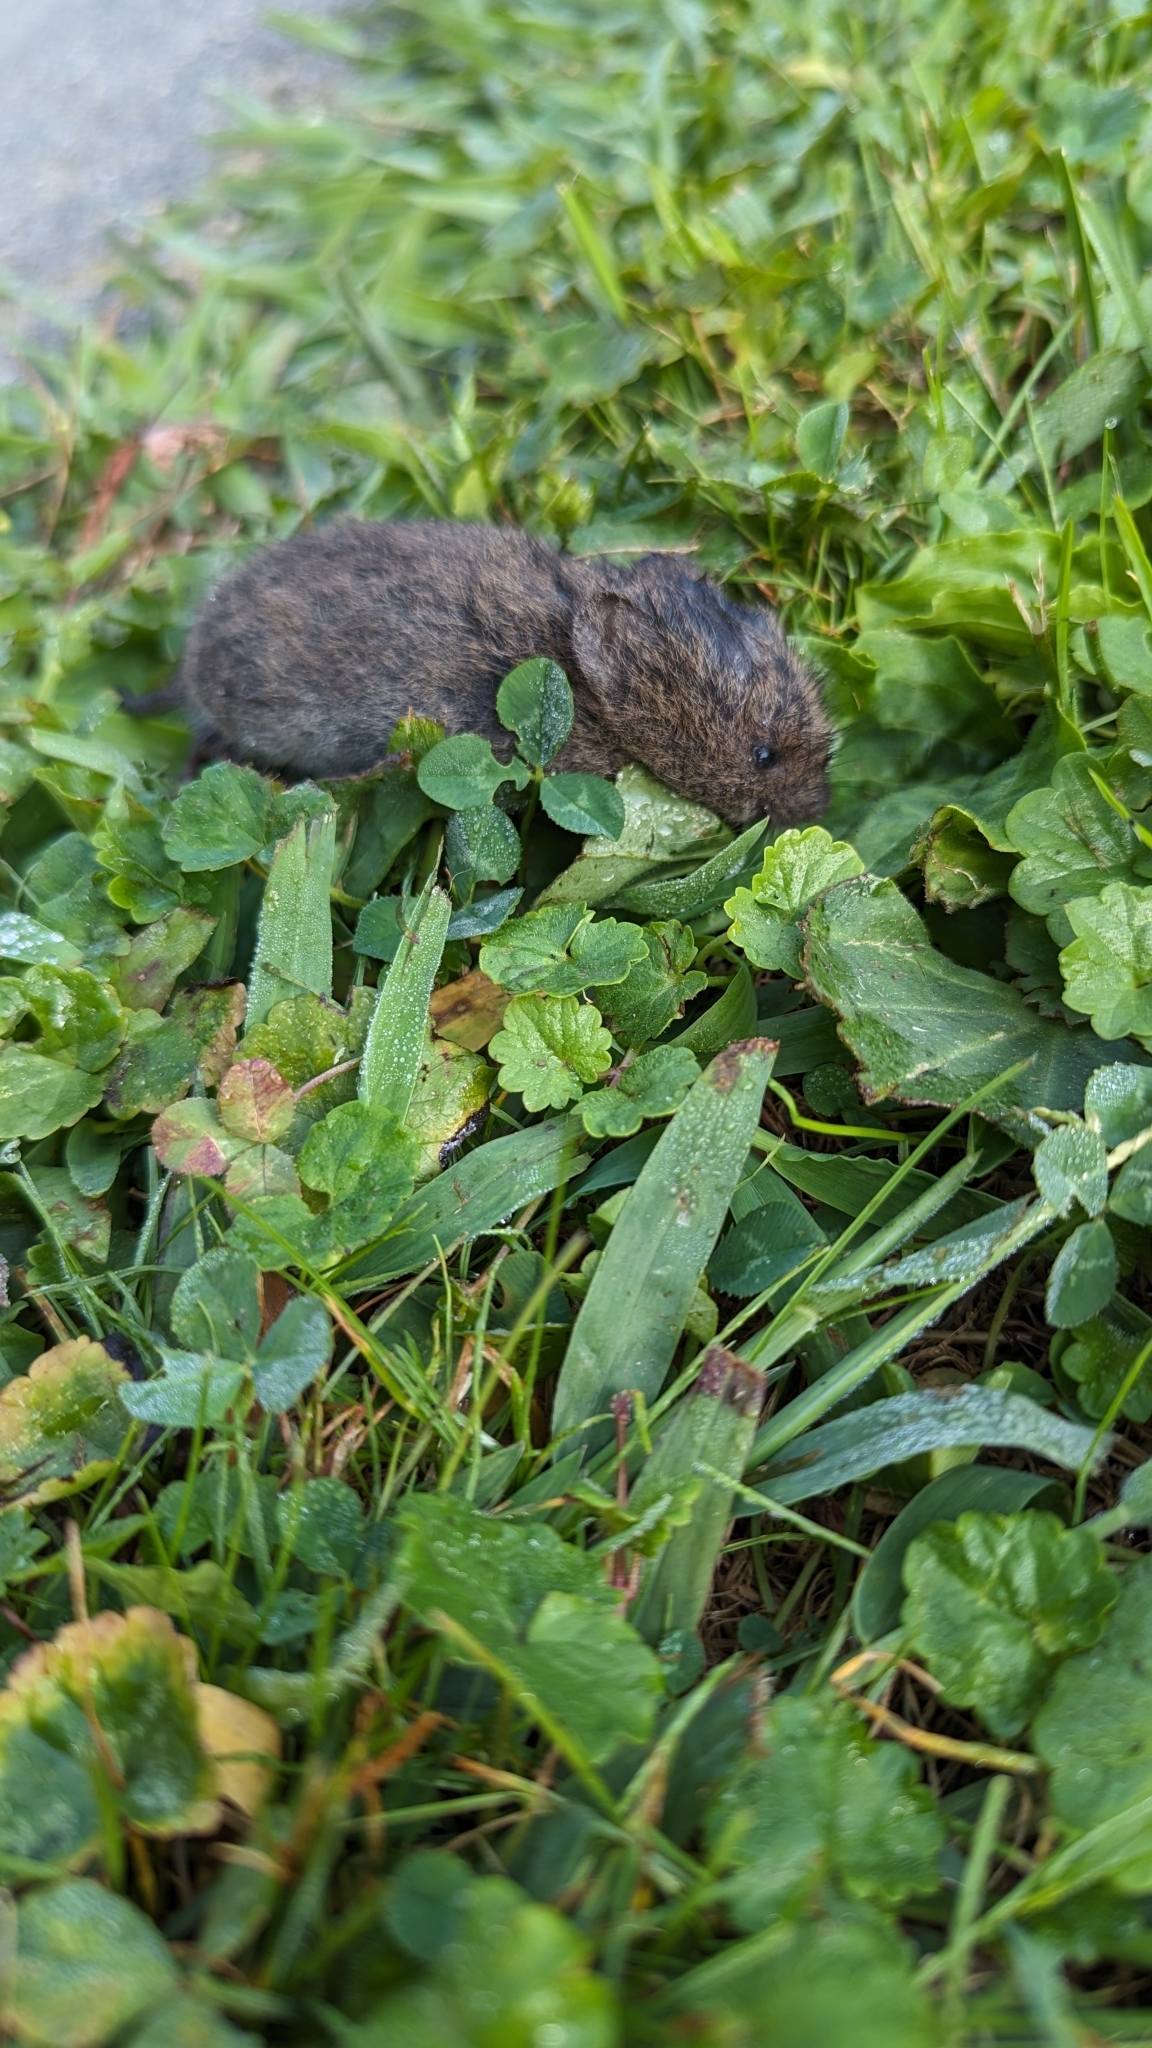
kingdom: Animalia
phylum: Chordata
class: Mammalia
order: Rodentia
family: Cricetidae
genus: Microtus
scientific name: Microtus pennsylvanicus
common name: Meadow vole
